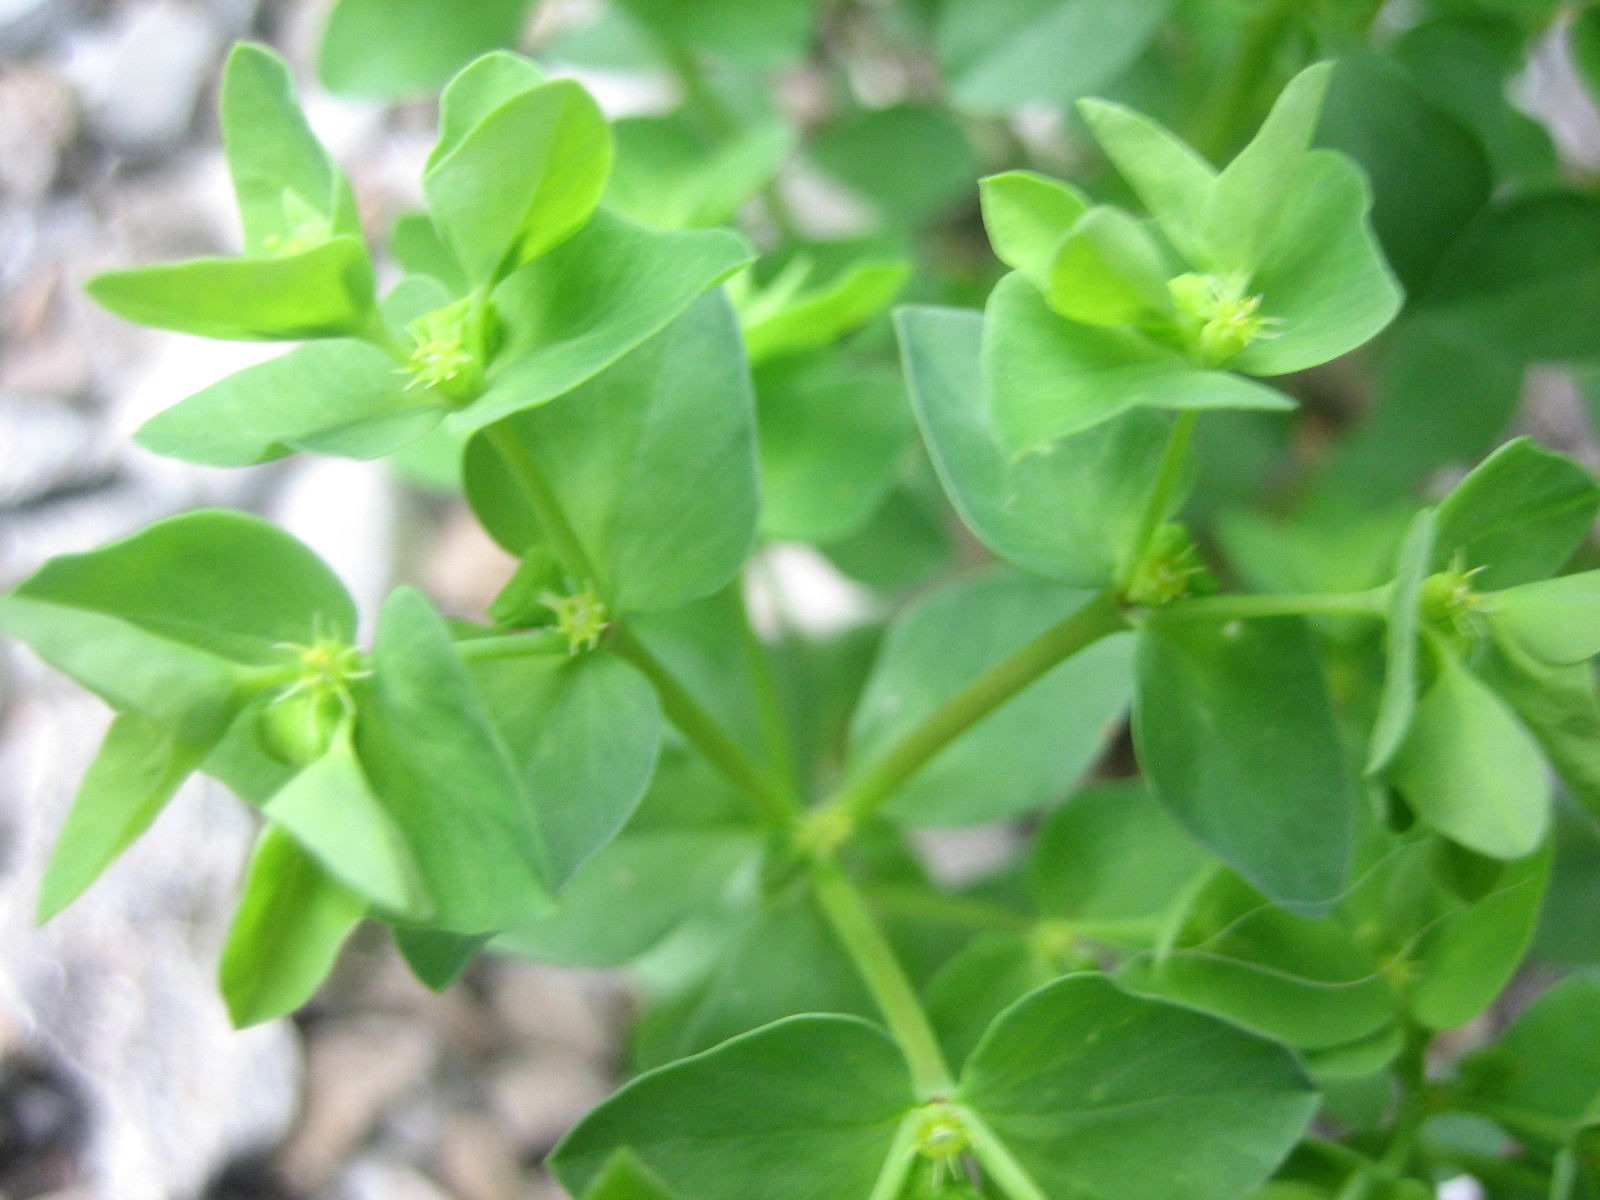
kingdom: Plantae
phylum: Tracheophyta
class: Magnoliopsida
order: Malpighiales
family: Euphorbiaceae
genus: Euphorbia
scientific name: Euphorbia peplus
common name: Petty spurge
